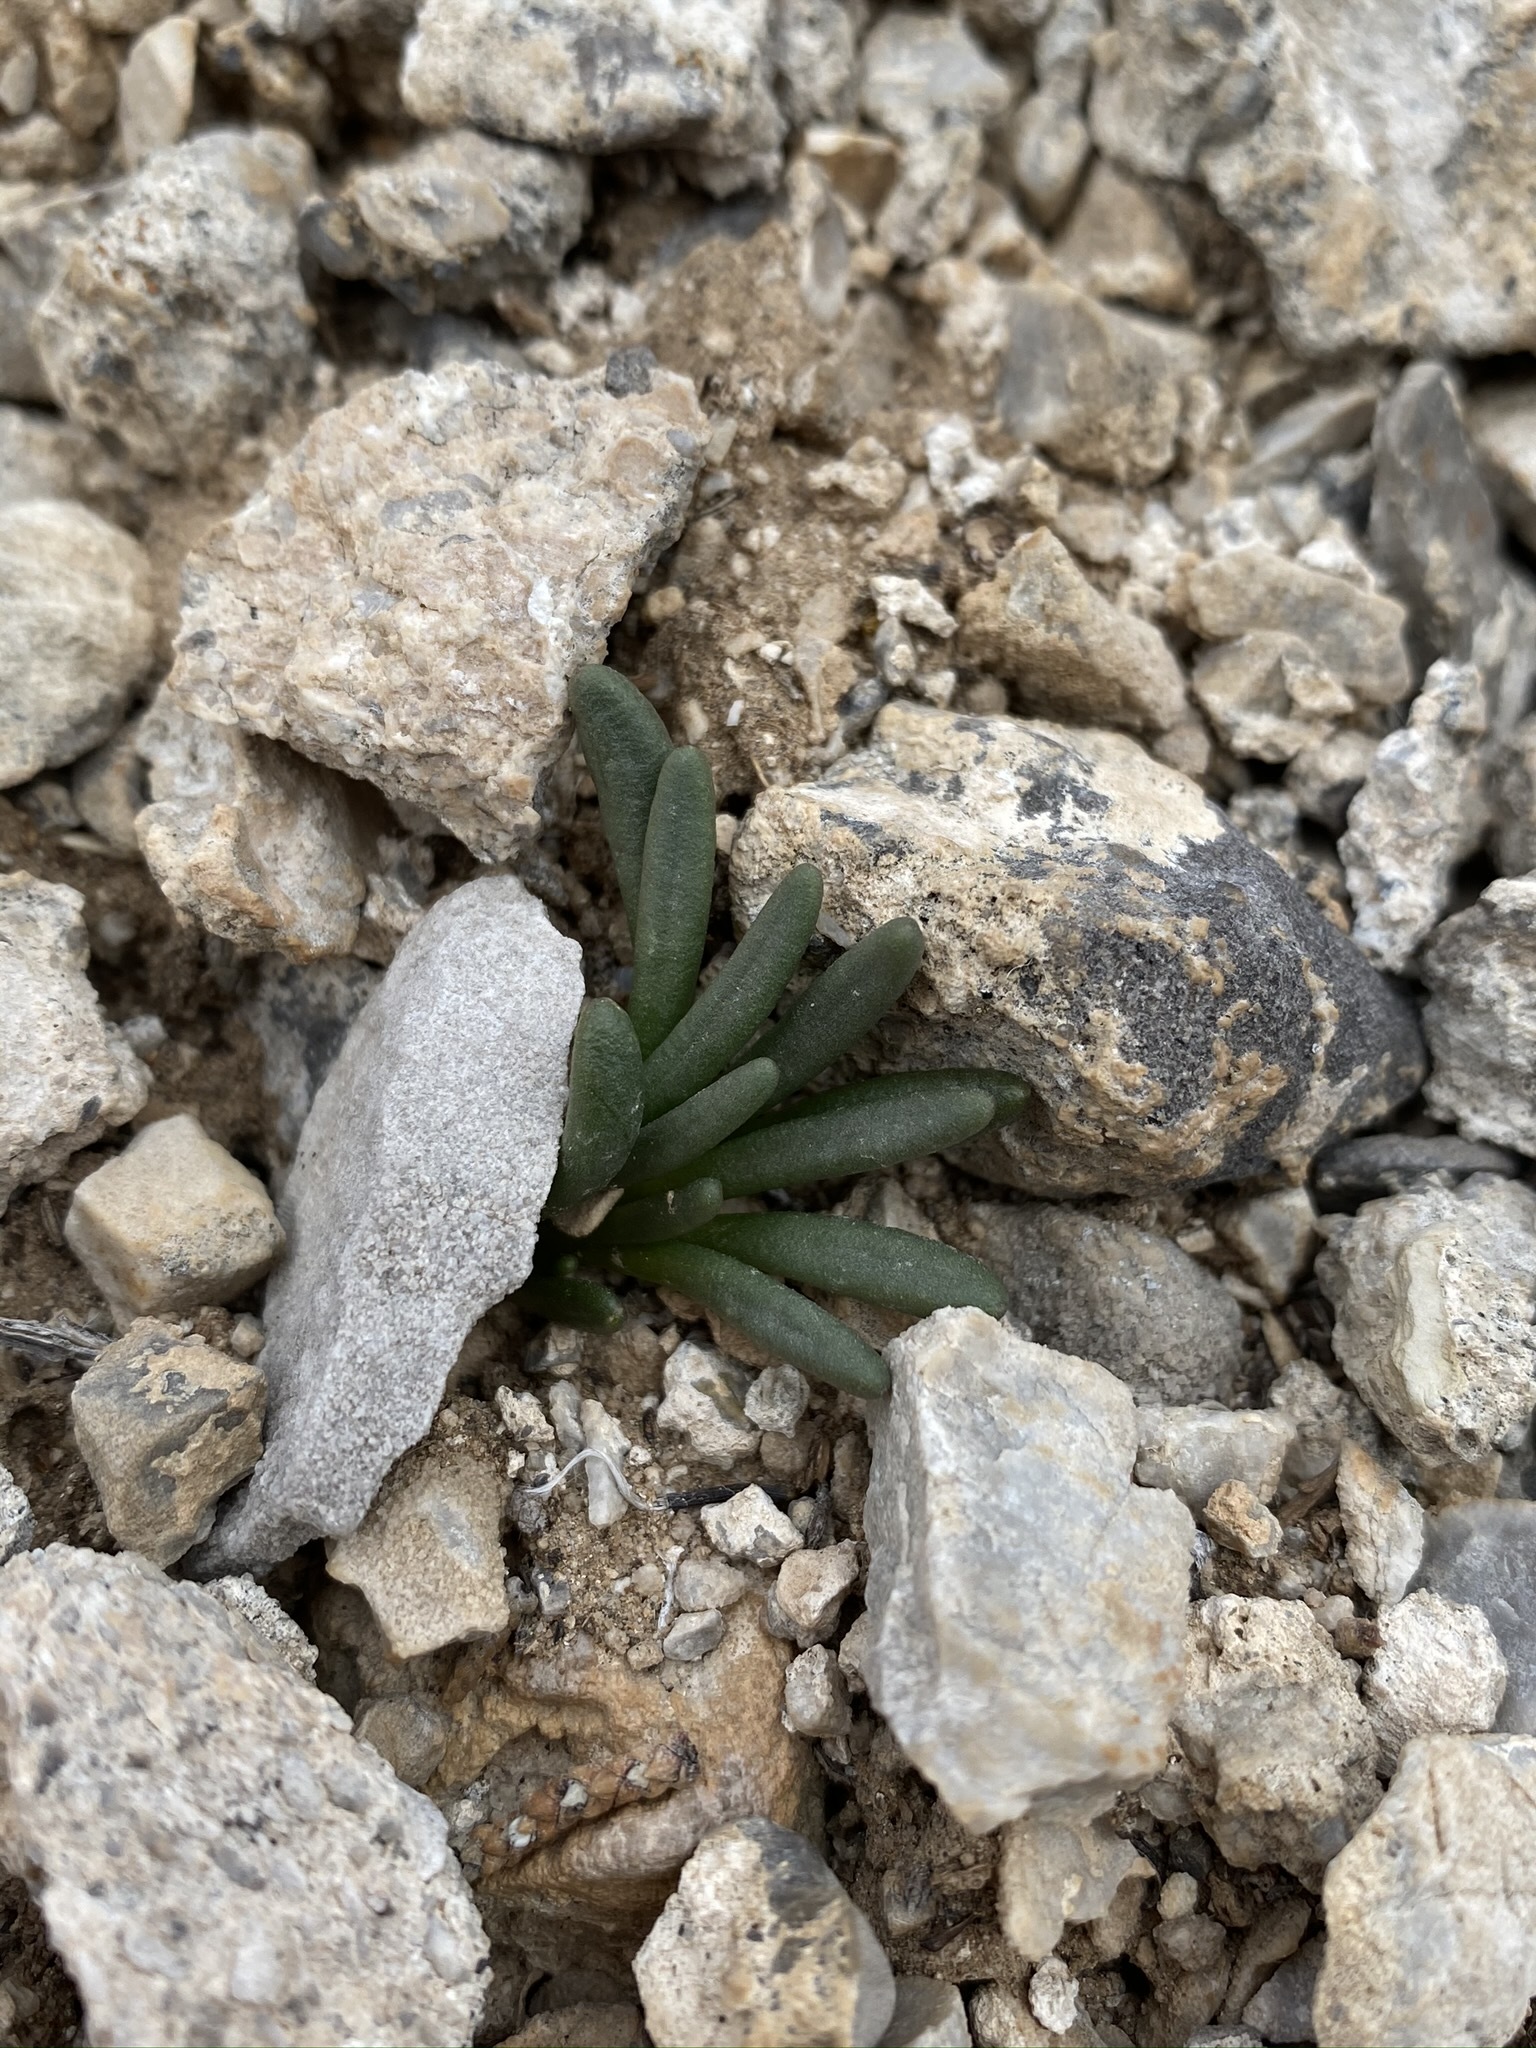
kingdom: Plantae
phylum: Tracheophyta
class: Magnoliopsida
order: Caryophyllales
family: Montiaceae
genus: Lewisia
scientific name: Lewisia maguirei
